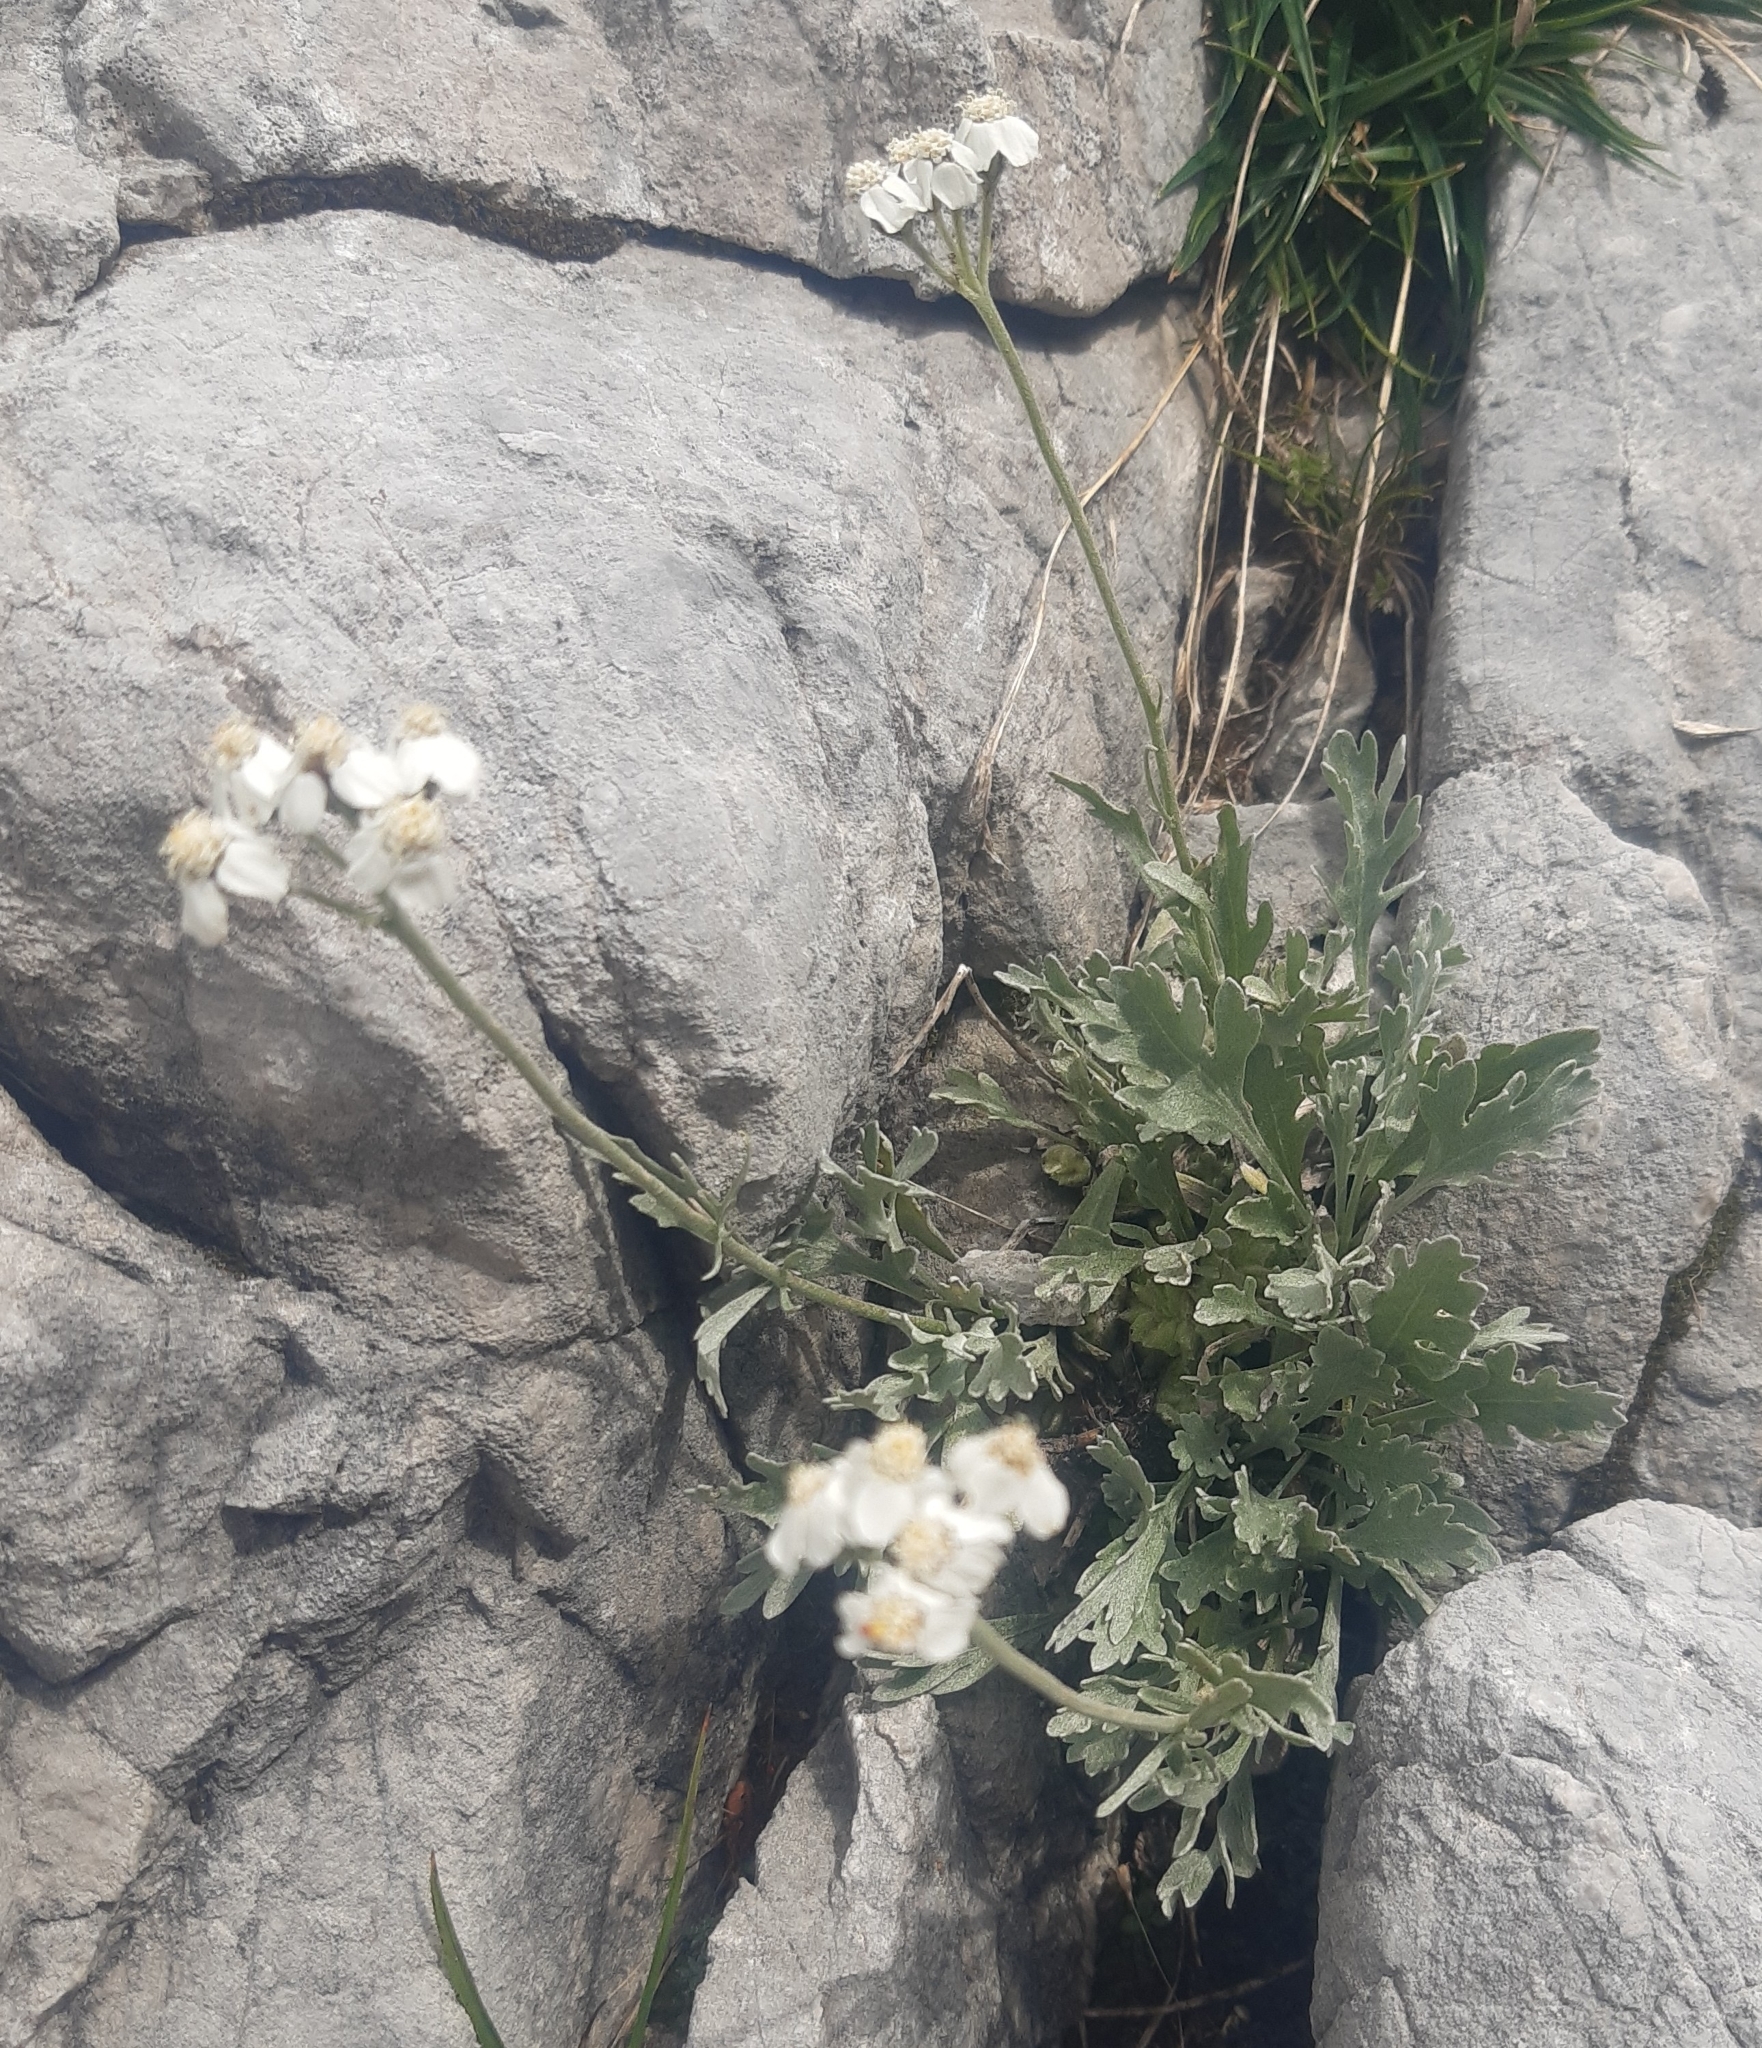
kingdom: Plantae
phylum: Tracheophyta
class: Magnoliopsida
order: Asterales
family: Asteraceae
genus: Achillea
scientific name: Achillea clavennae
